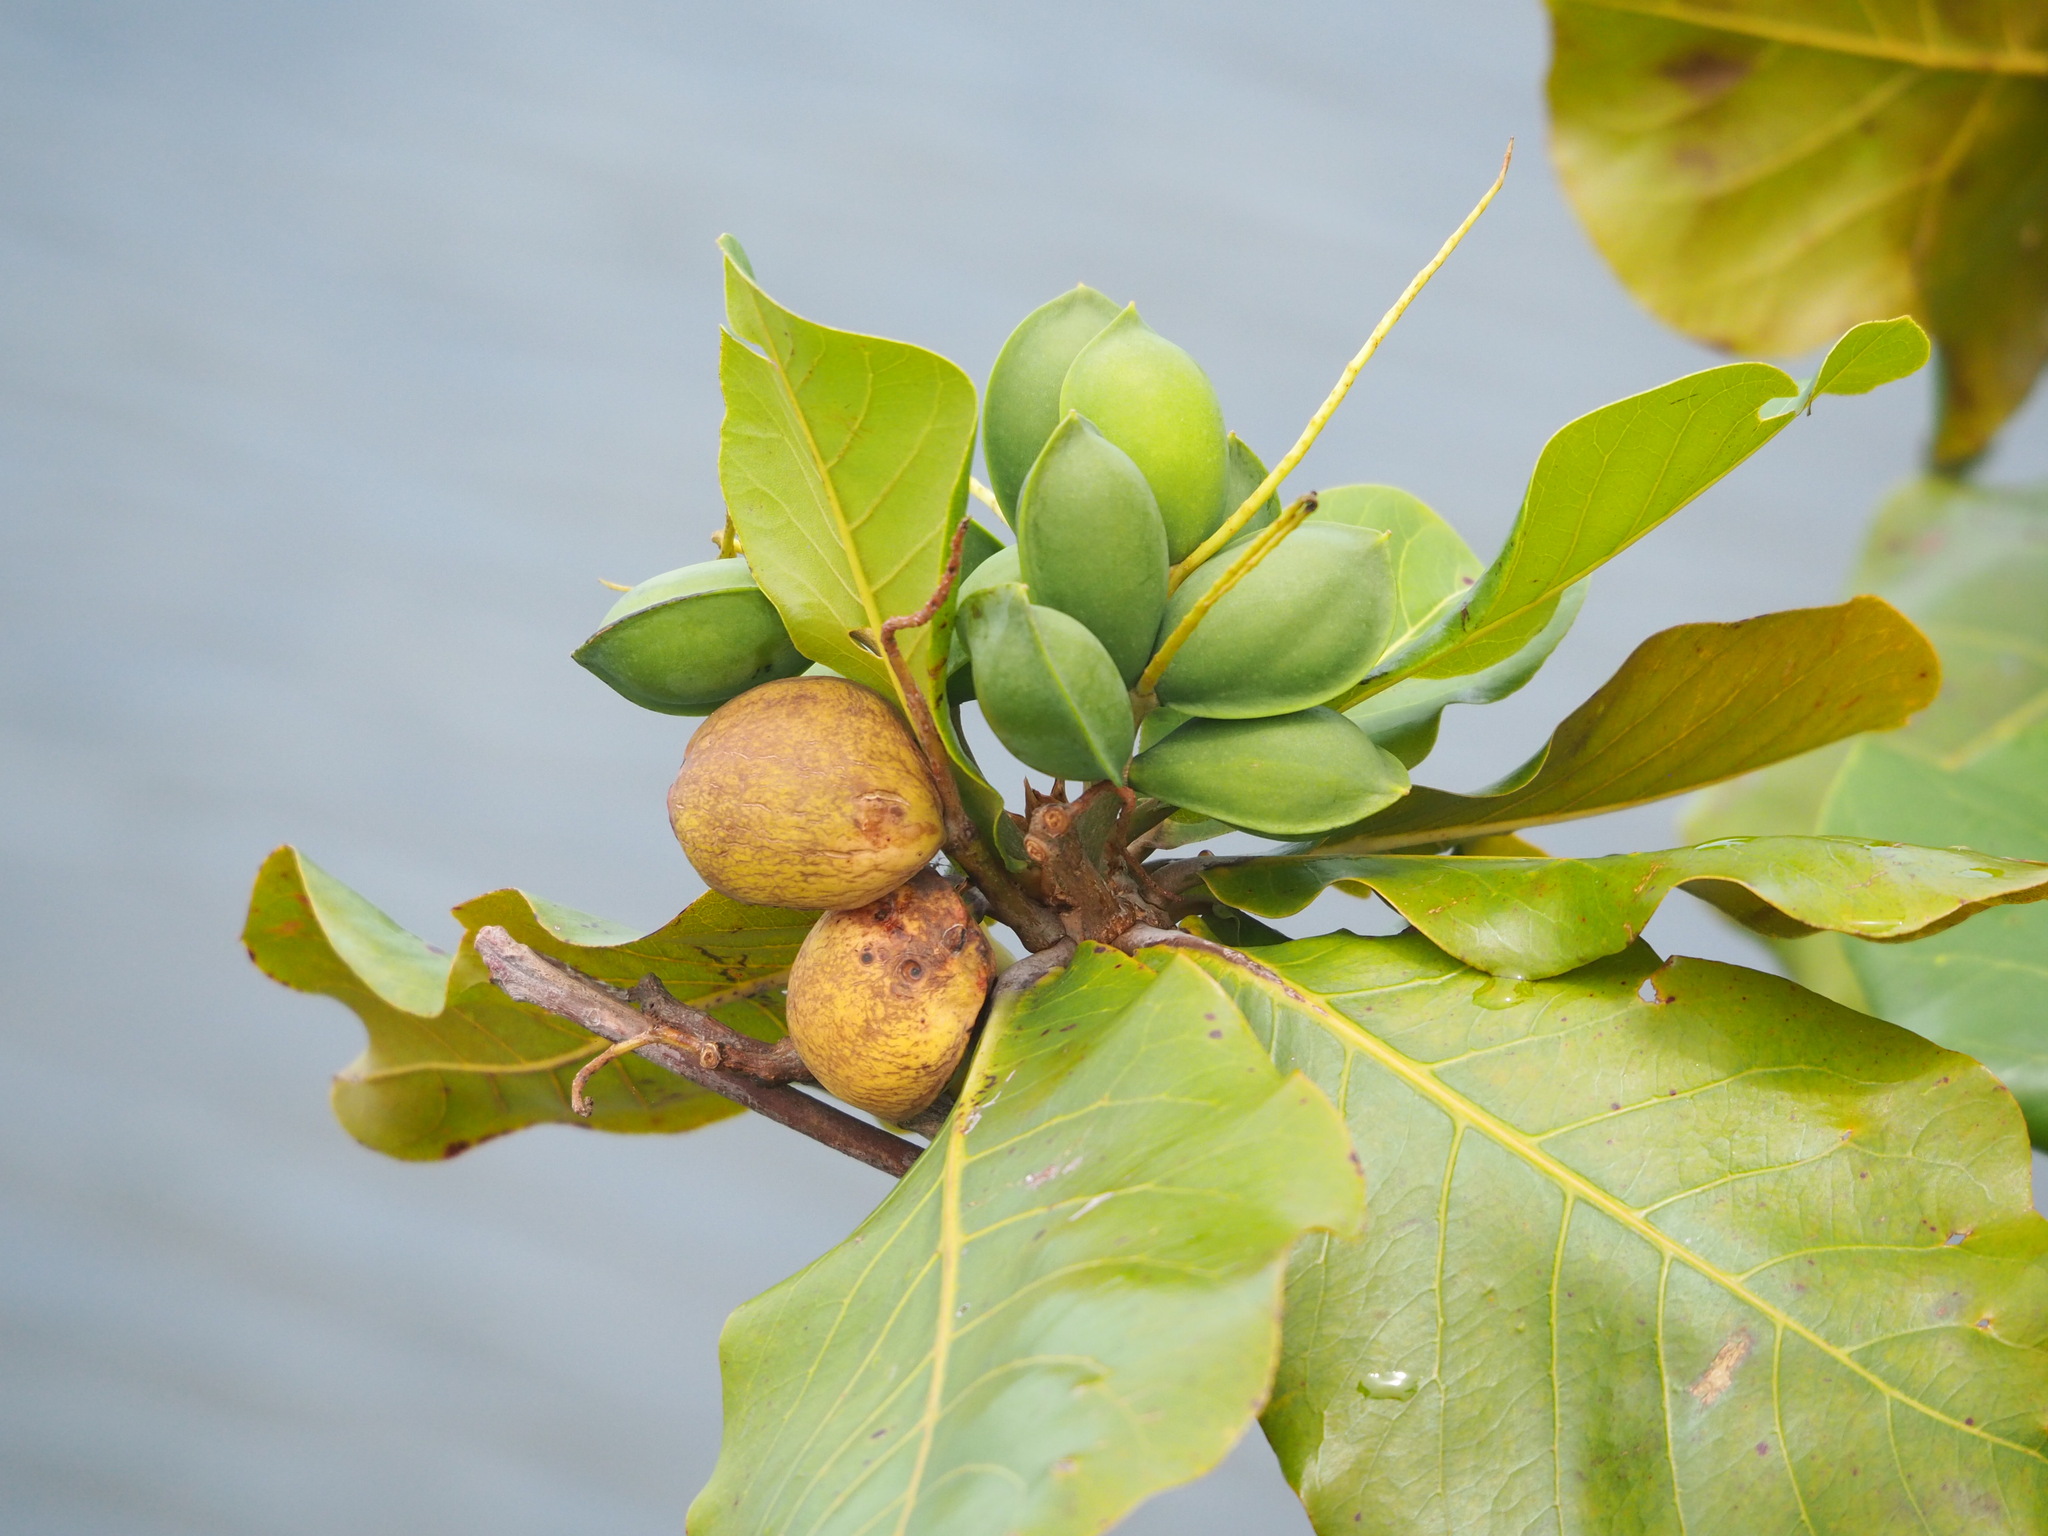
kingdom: Plantae
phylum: Tracheophyta
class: Magnoliopsida
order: Myrtales
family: Combretaceae
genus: Terminalia
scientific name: Terminalia catappa
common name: Tropical almond
